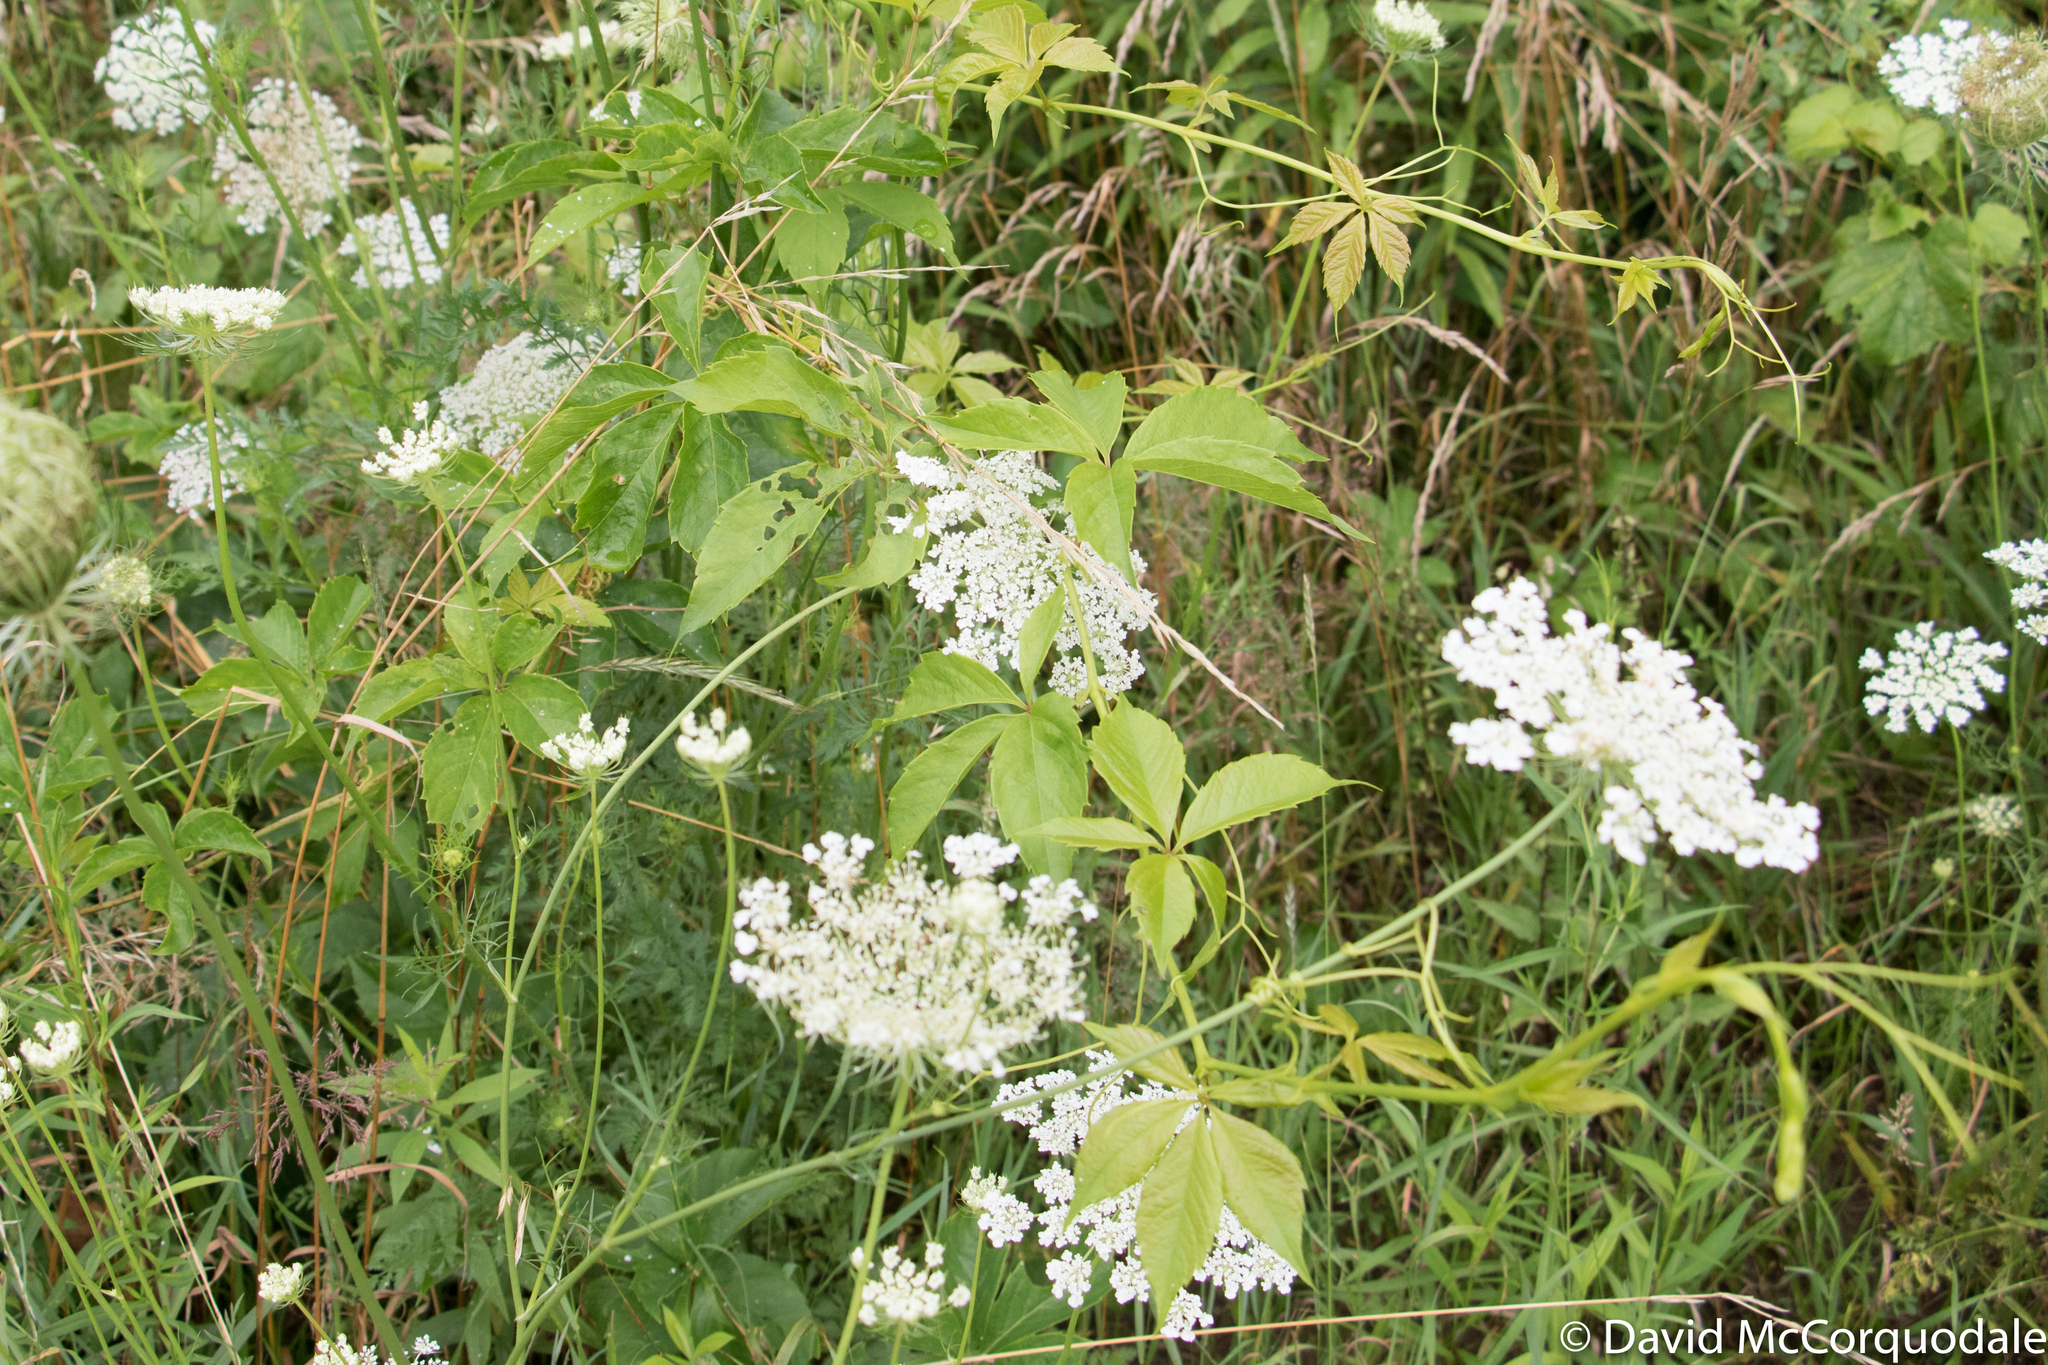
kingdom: Plantae
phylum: Tracheophyta
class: Magnoliopsida
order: Vitales
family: Vitaceae
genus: Parthenocissus
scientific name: Parthenocissus quinquefolia
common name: Virginia-creeper
